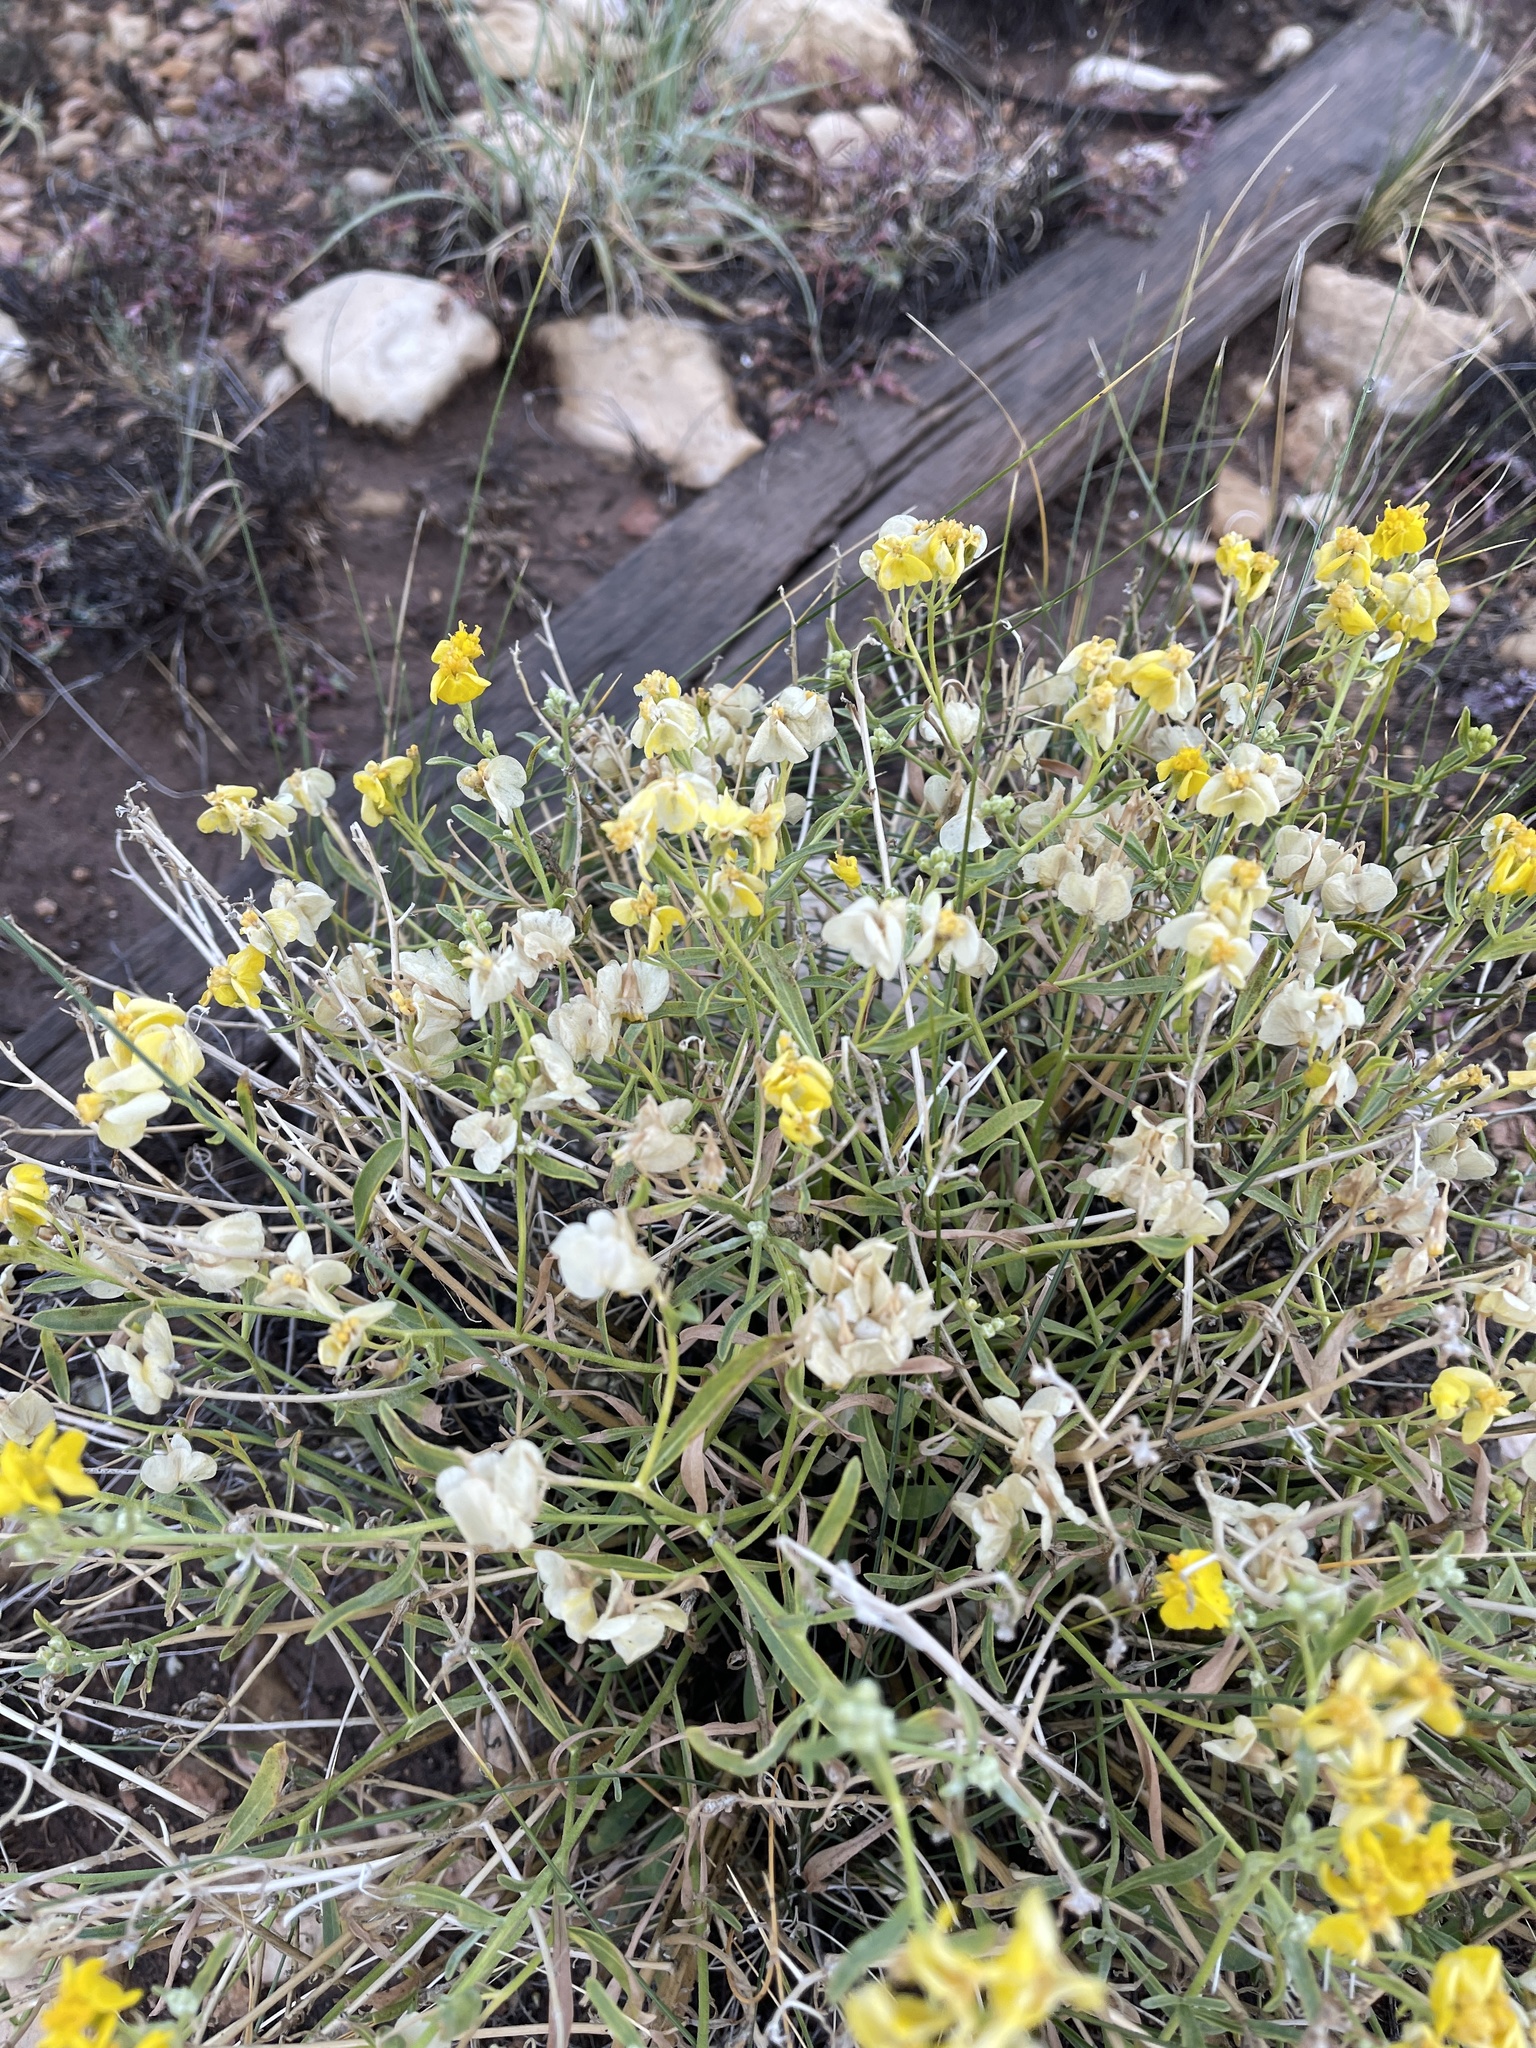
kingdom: Plantae
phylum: Tracheophyta
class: Magnoliopsida
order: Asterales
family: Asteraceae
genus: Psilostrophe
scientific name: Psilostrophe tagetina
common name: Marigold paper-flower
